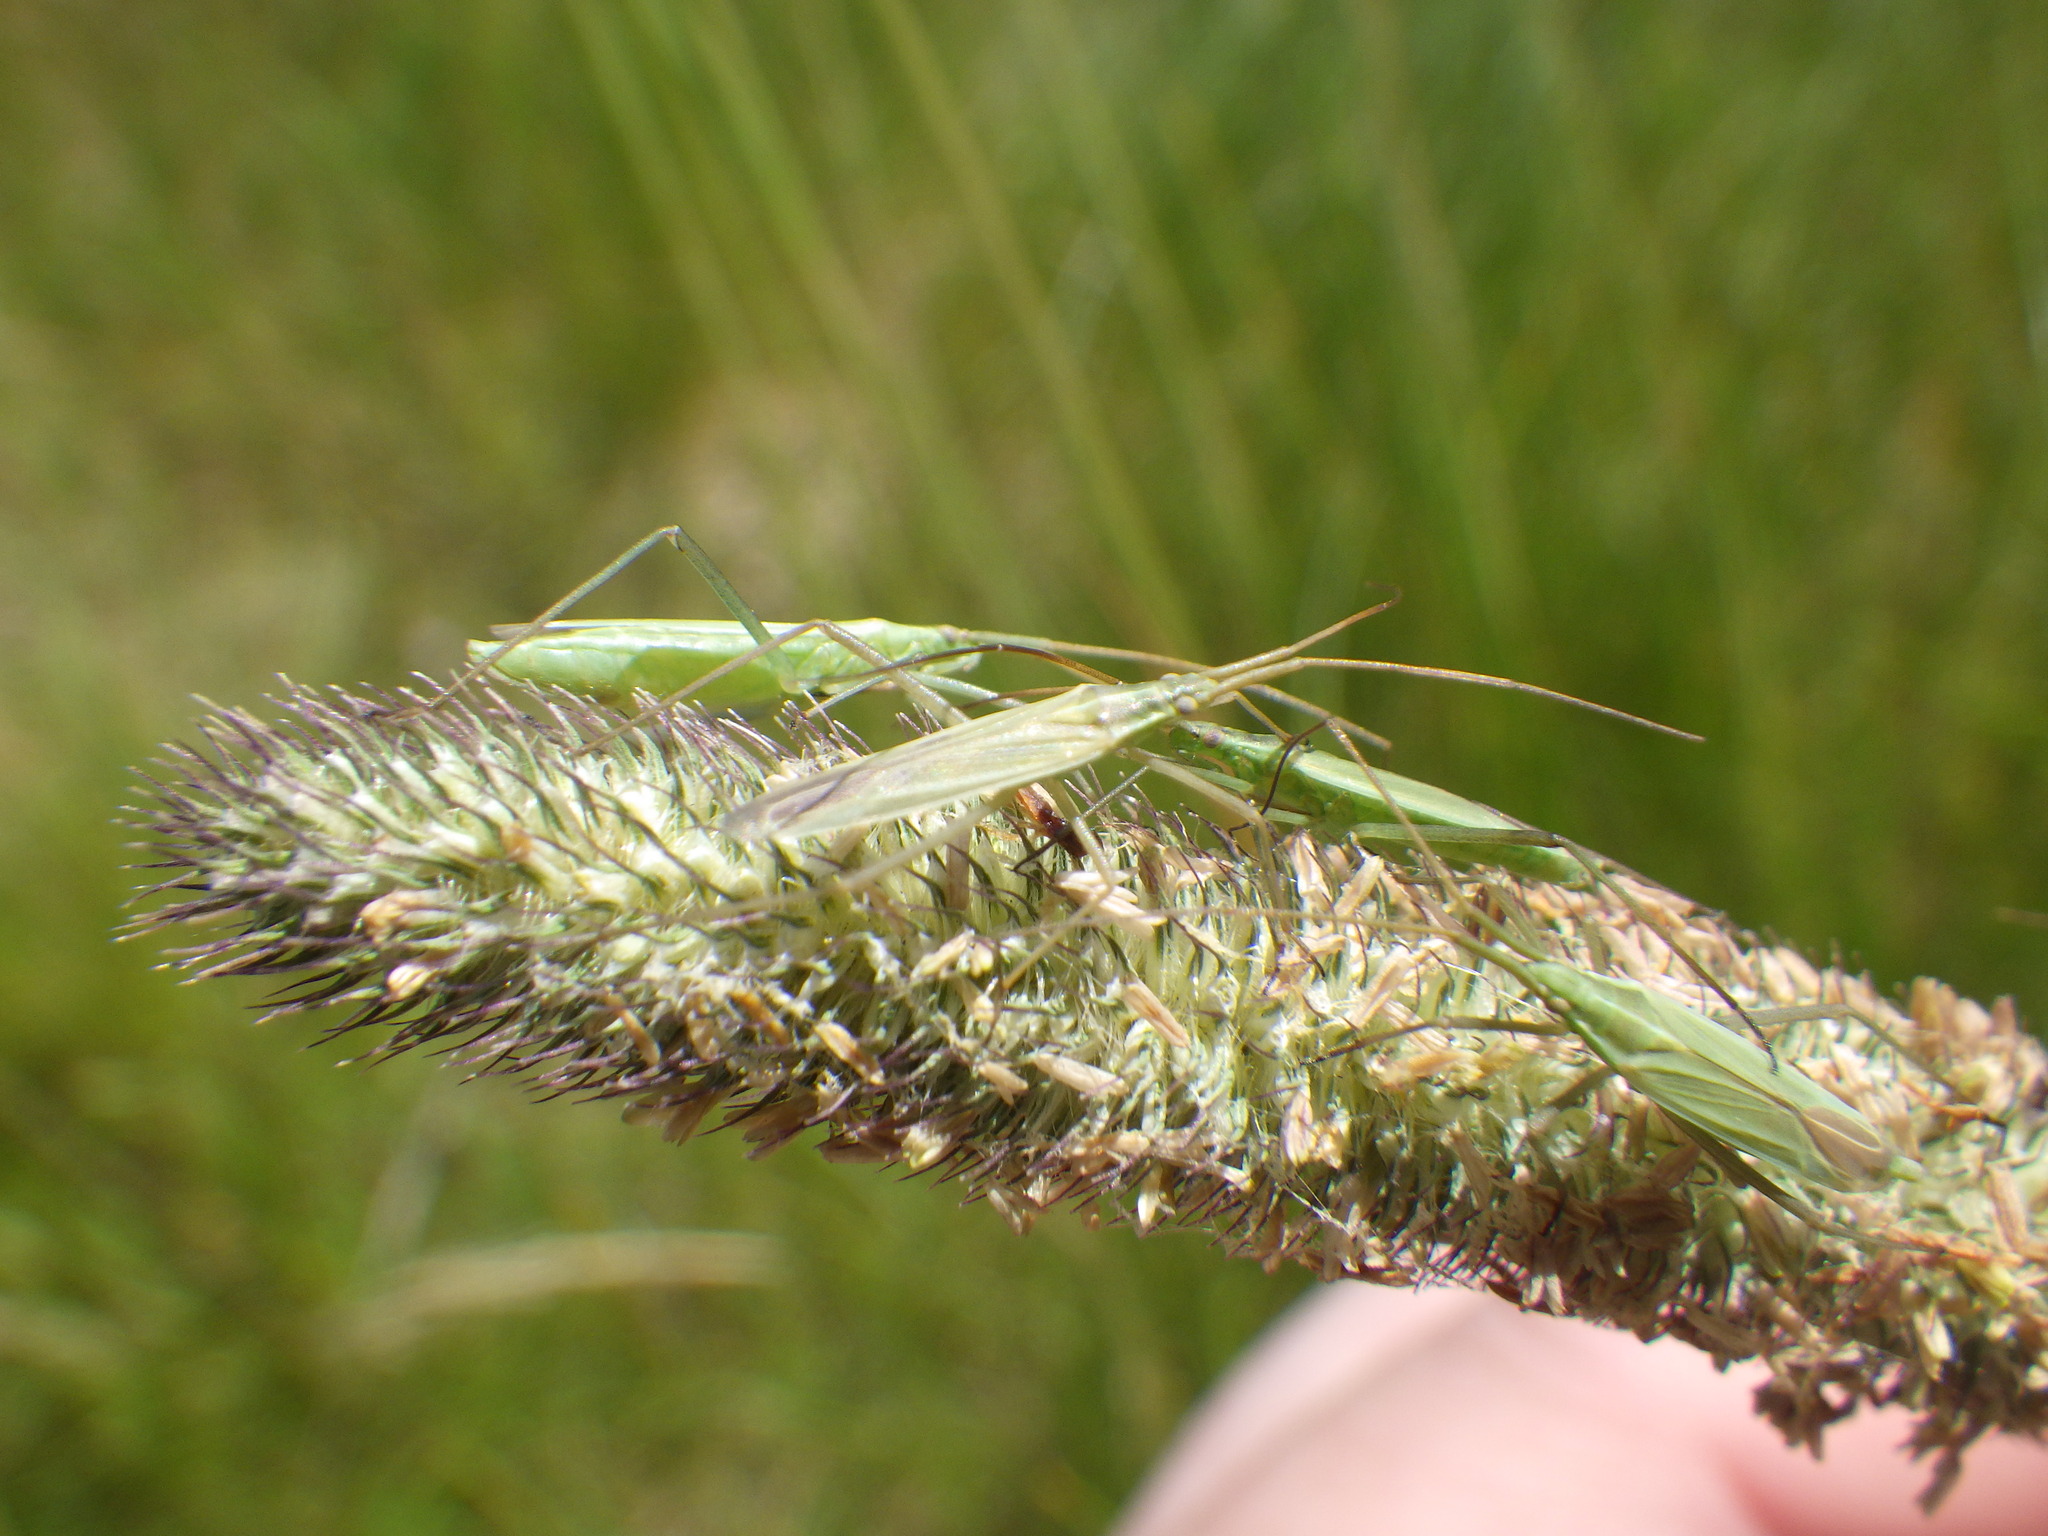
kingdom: Animalia
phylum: Arthropoda
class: Insecta
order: Hemiptera
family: Miridae
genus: Megaloceroea
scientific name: Megaloceroea recticornis
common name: Plant bug
